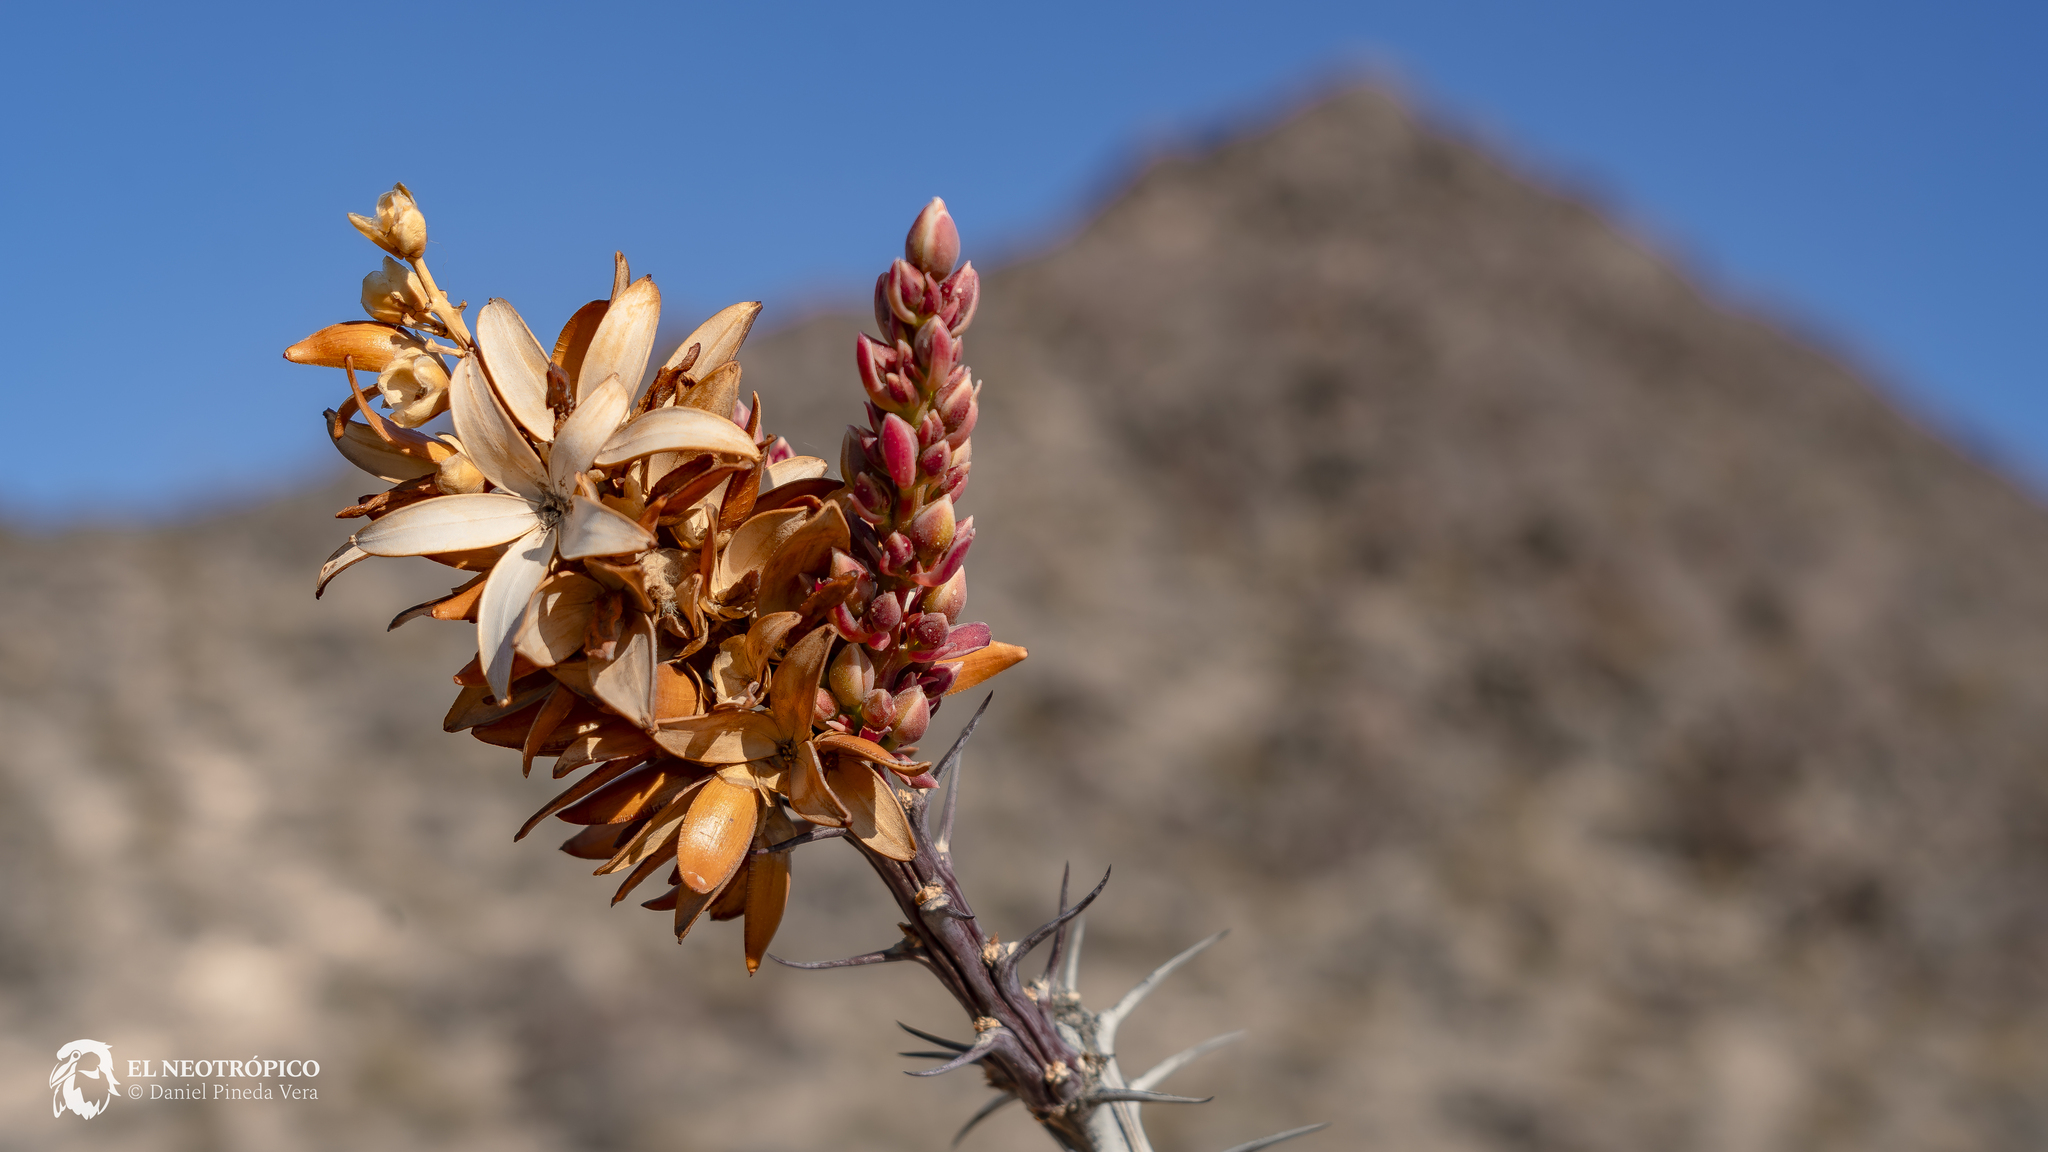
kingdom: Plantae
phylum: Tracheophyta
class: Magnoliopsida
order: Ericales
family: Fouquieriaceae
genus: Fouquieria
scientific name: Fouquieria splendens
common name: Vine-cactus
